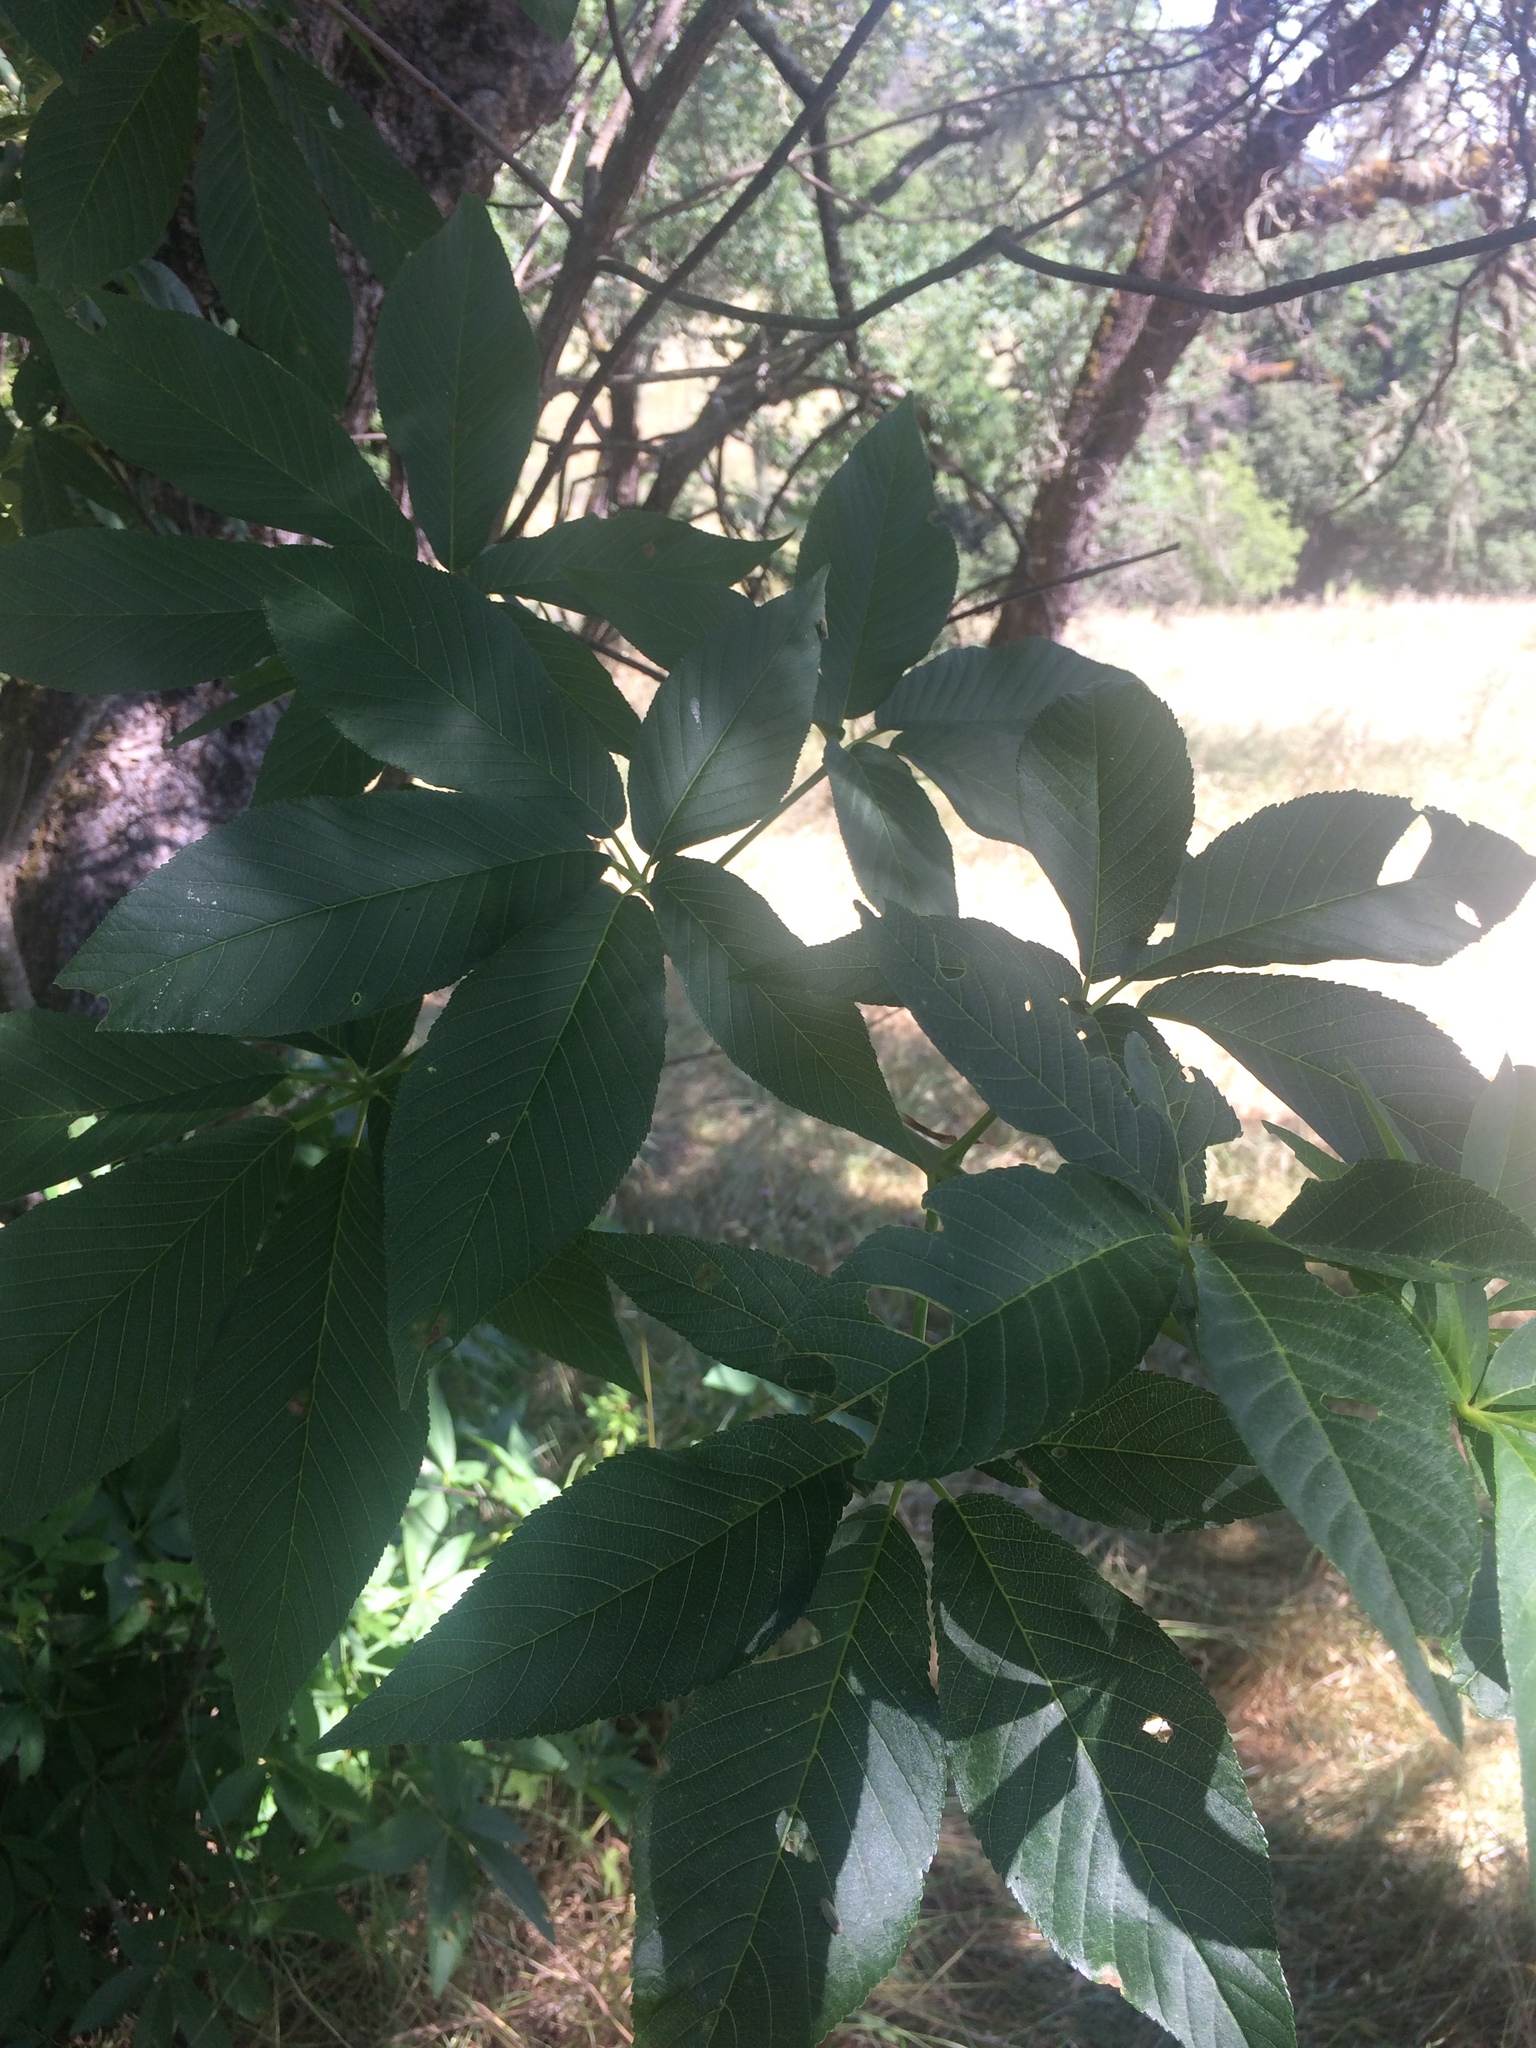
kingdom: Plantae
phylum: Tracheophyta
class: Magnoliopsida
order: Sapindales
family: Sapindaceae
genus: Aesculus
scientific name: Aesculus californica
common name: California buckeye
